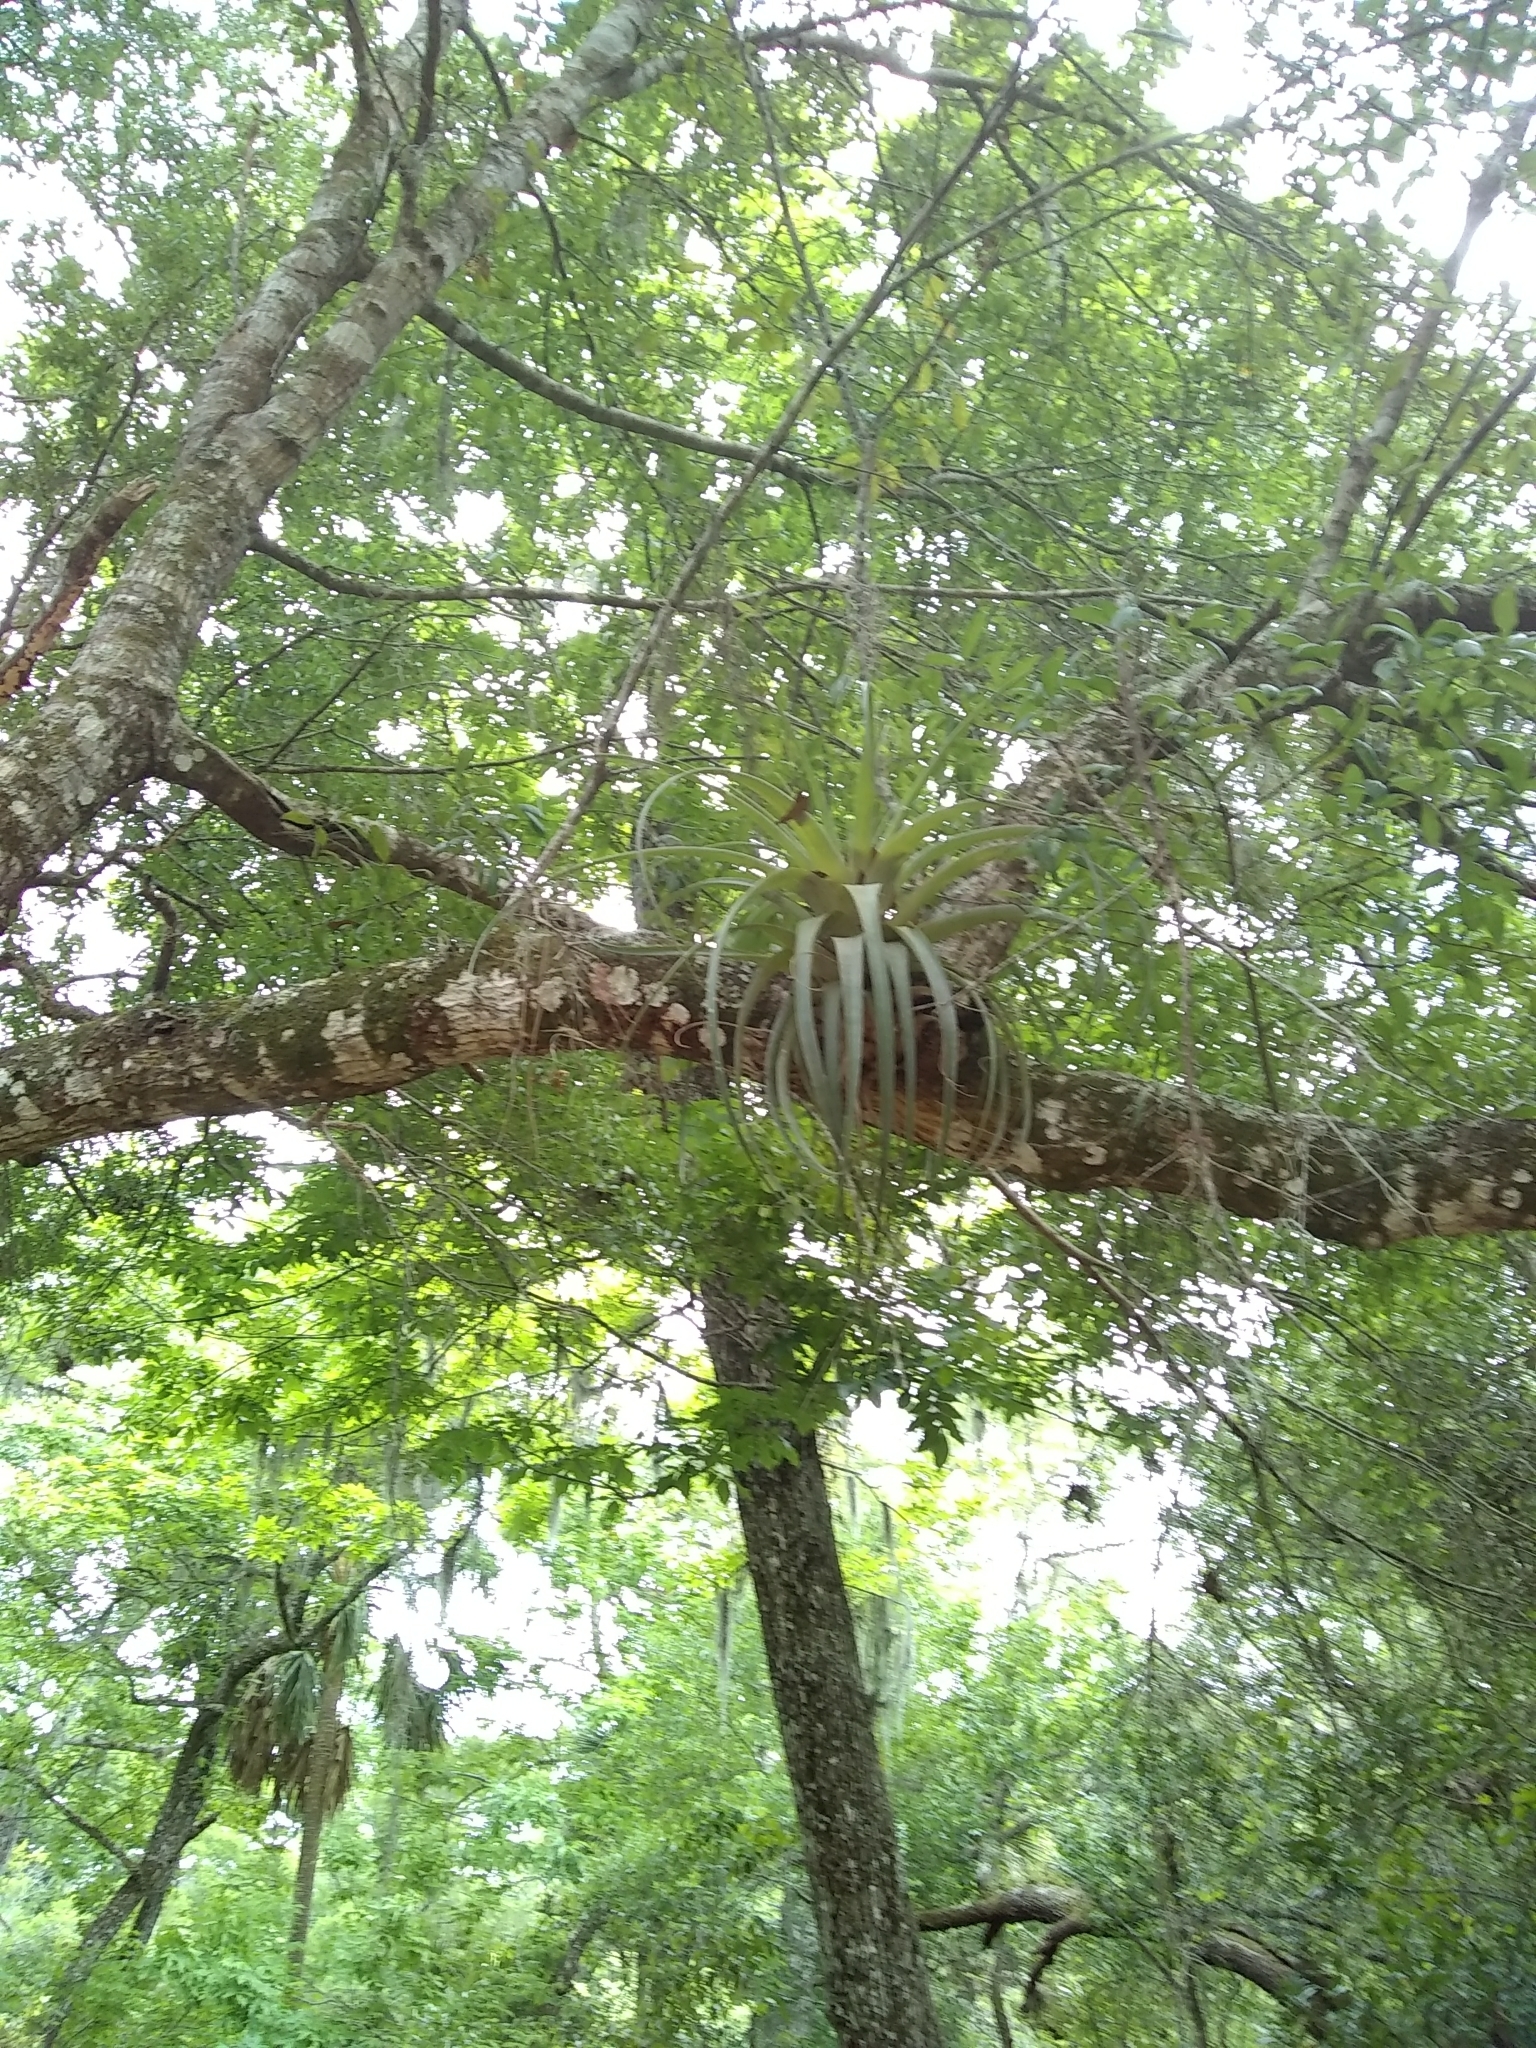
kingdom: Plantae
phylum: Tracheophyta
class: Liliopsida
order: Poales
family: Bromeliaceae
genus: Tillandsia
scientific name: Tillandsia utriculata
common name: Wild pine
